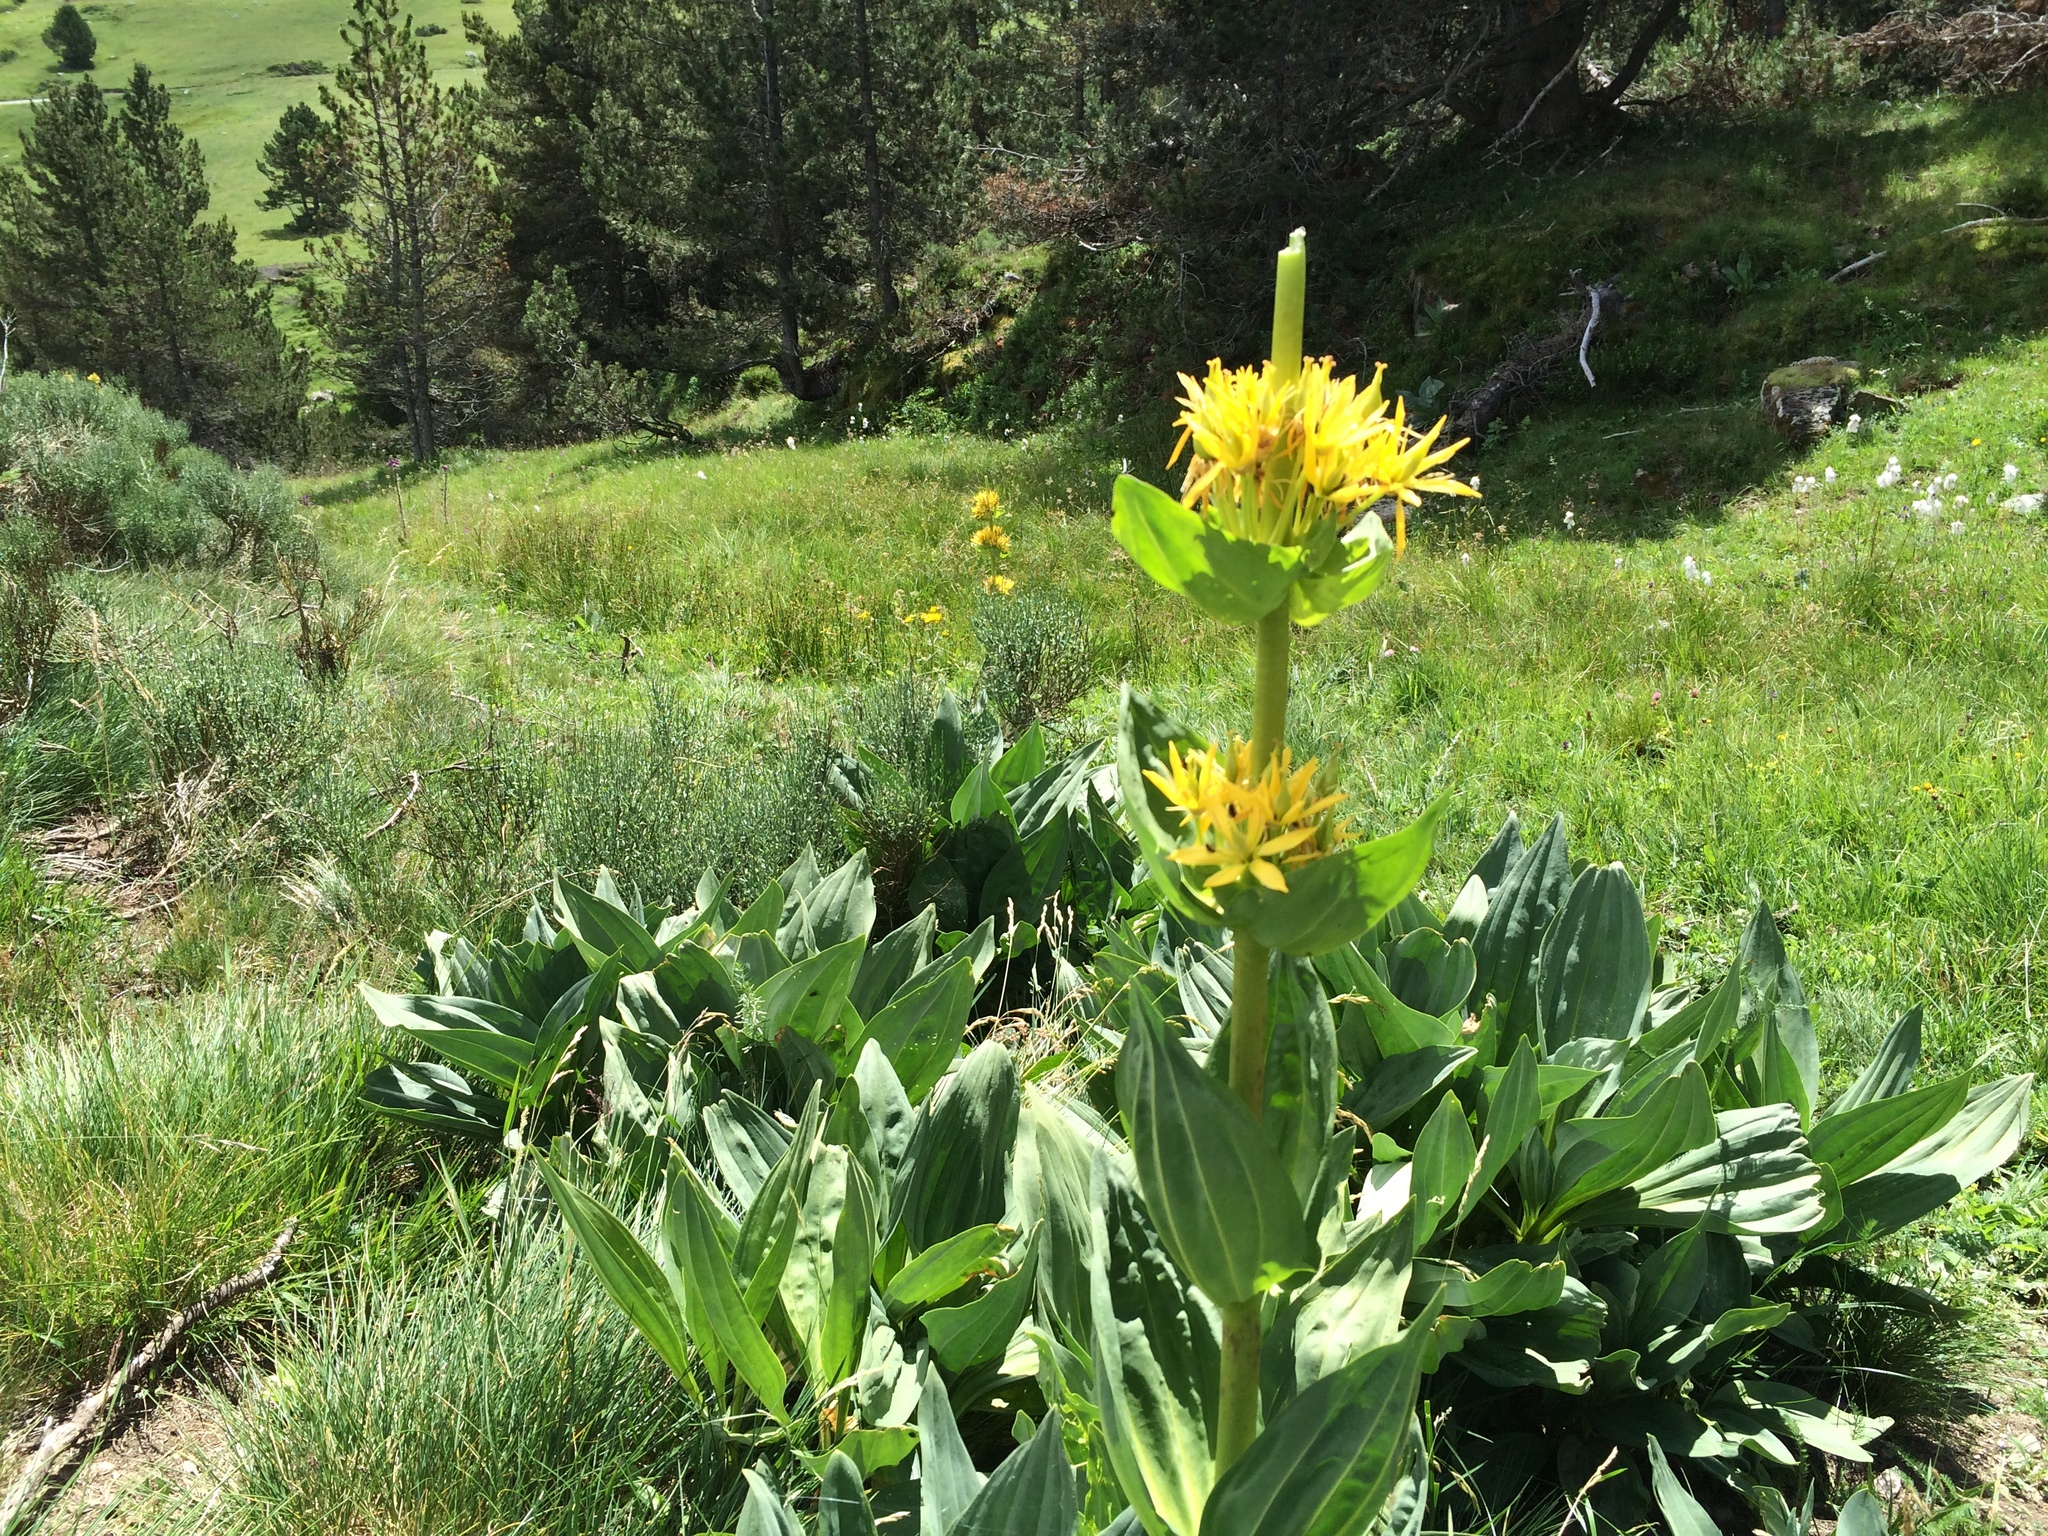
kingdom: Plantae
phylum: Tracheophyta
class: Magnoliopsida
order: Gentianales
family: Gentianaceae
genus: Gentiana
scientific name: Gentiana lutea
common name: Great yellow gentian
